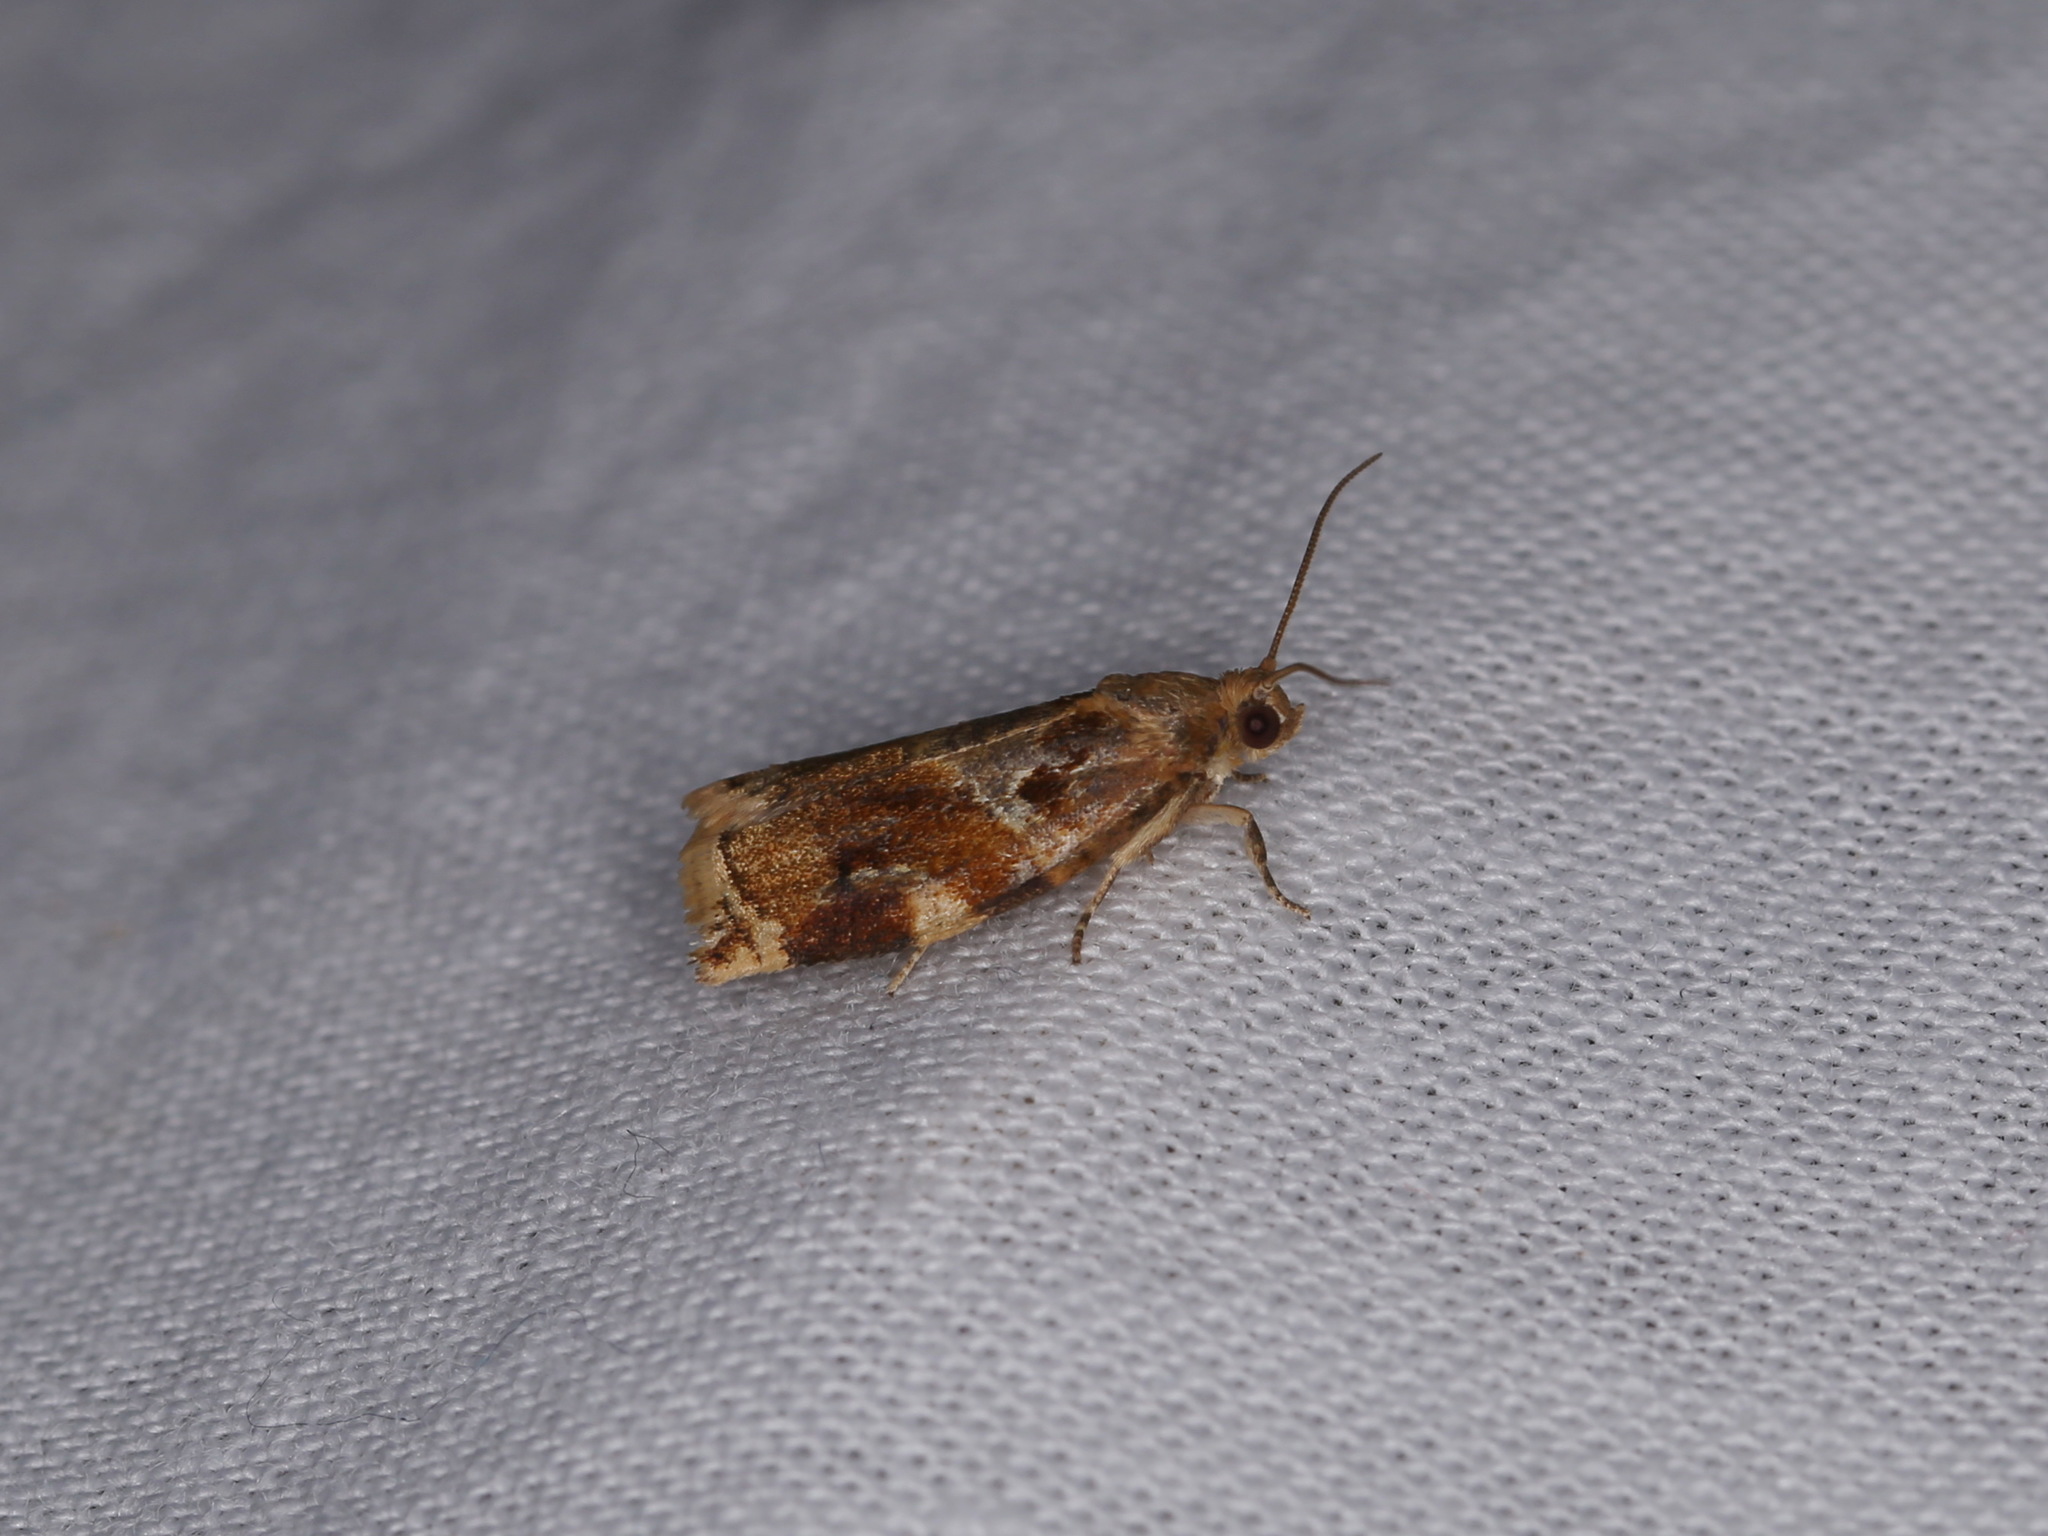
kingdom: Animalia
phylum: Arthropoda
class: Insecta
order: Lepidoptera
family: Tortricidae
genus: Archips
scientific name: Archips xylosteana
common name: Variegated golden tortrix
